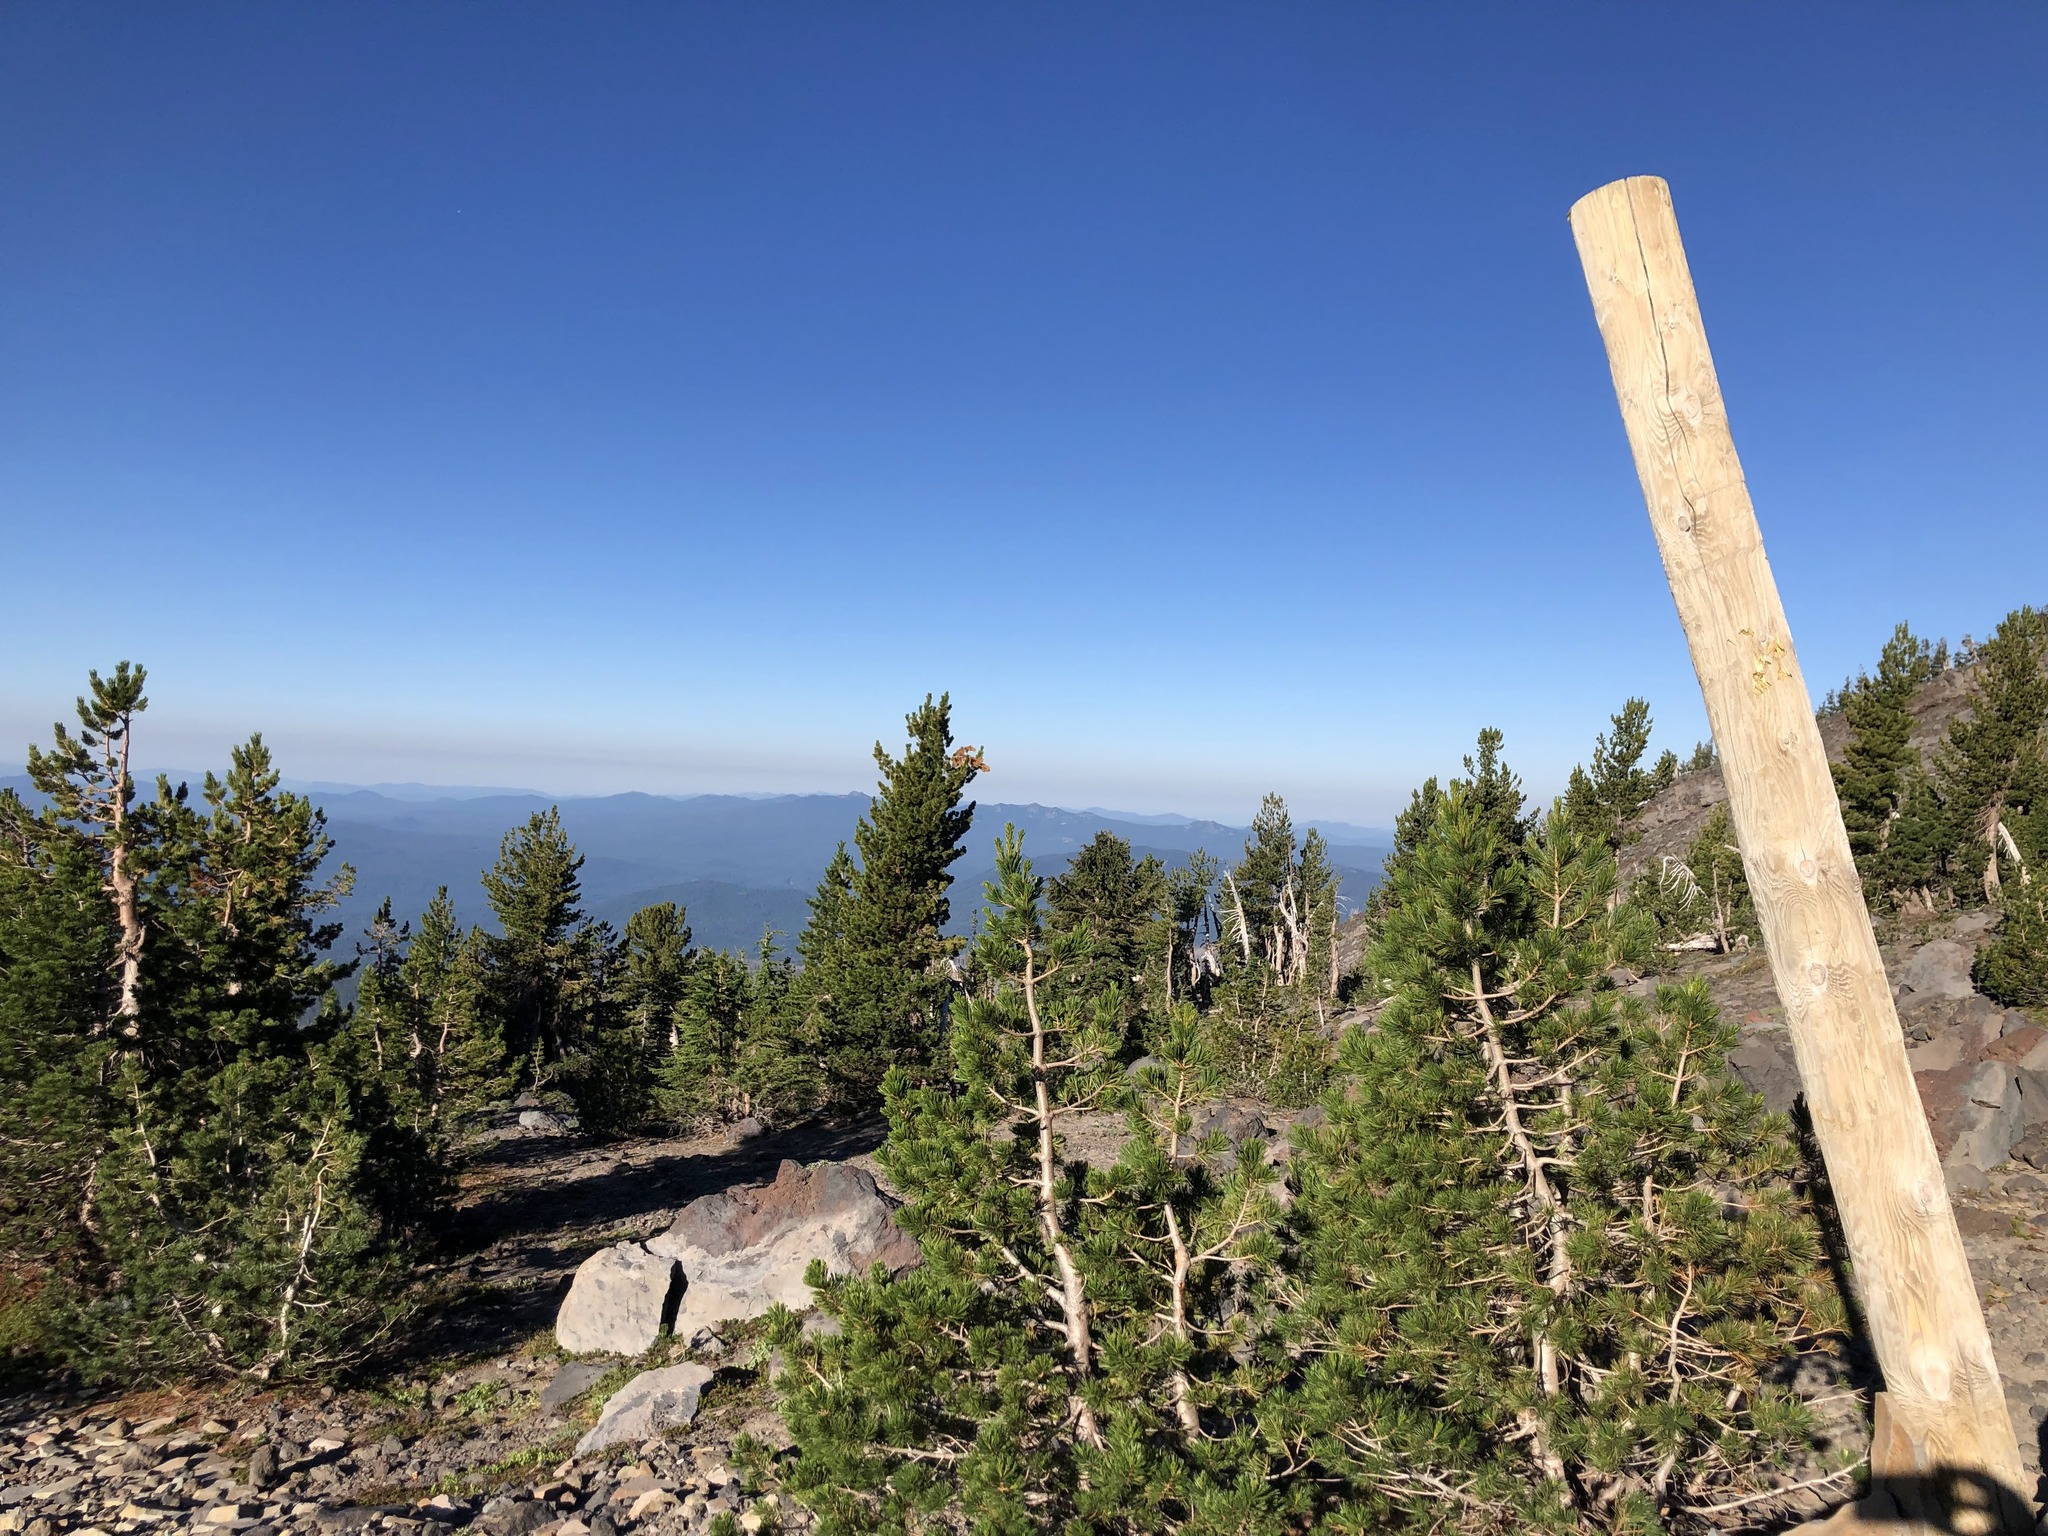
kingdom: Plantae
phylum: Tracheophyta
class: Pinopsida
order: Pinales
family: Pinaceae
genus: Pinus
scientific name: Pinus albicaulis
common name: Whitebark pine
